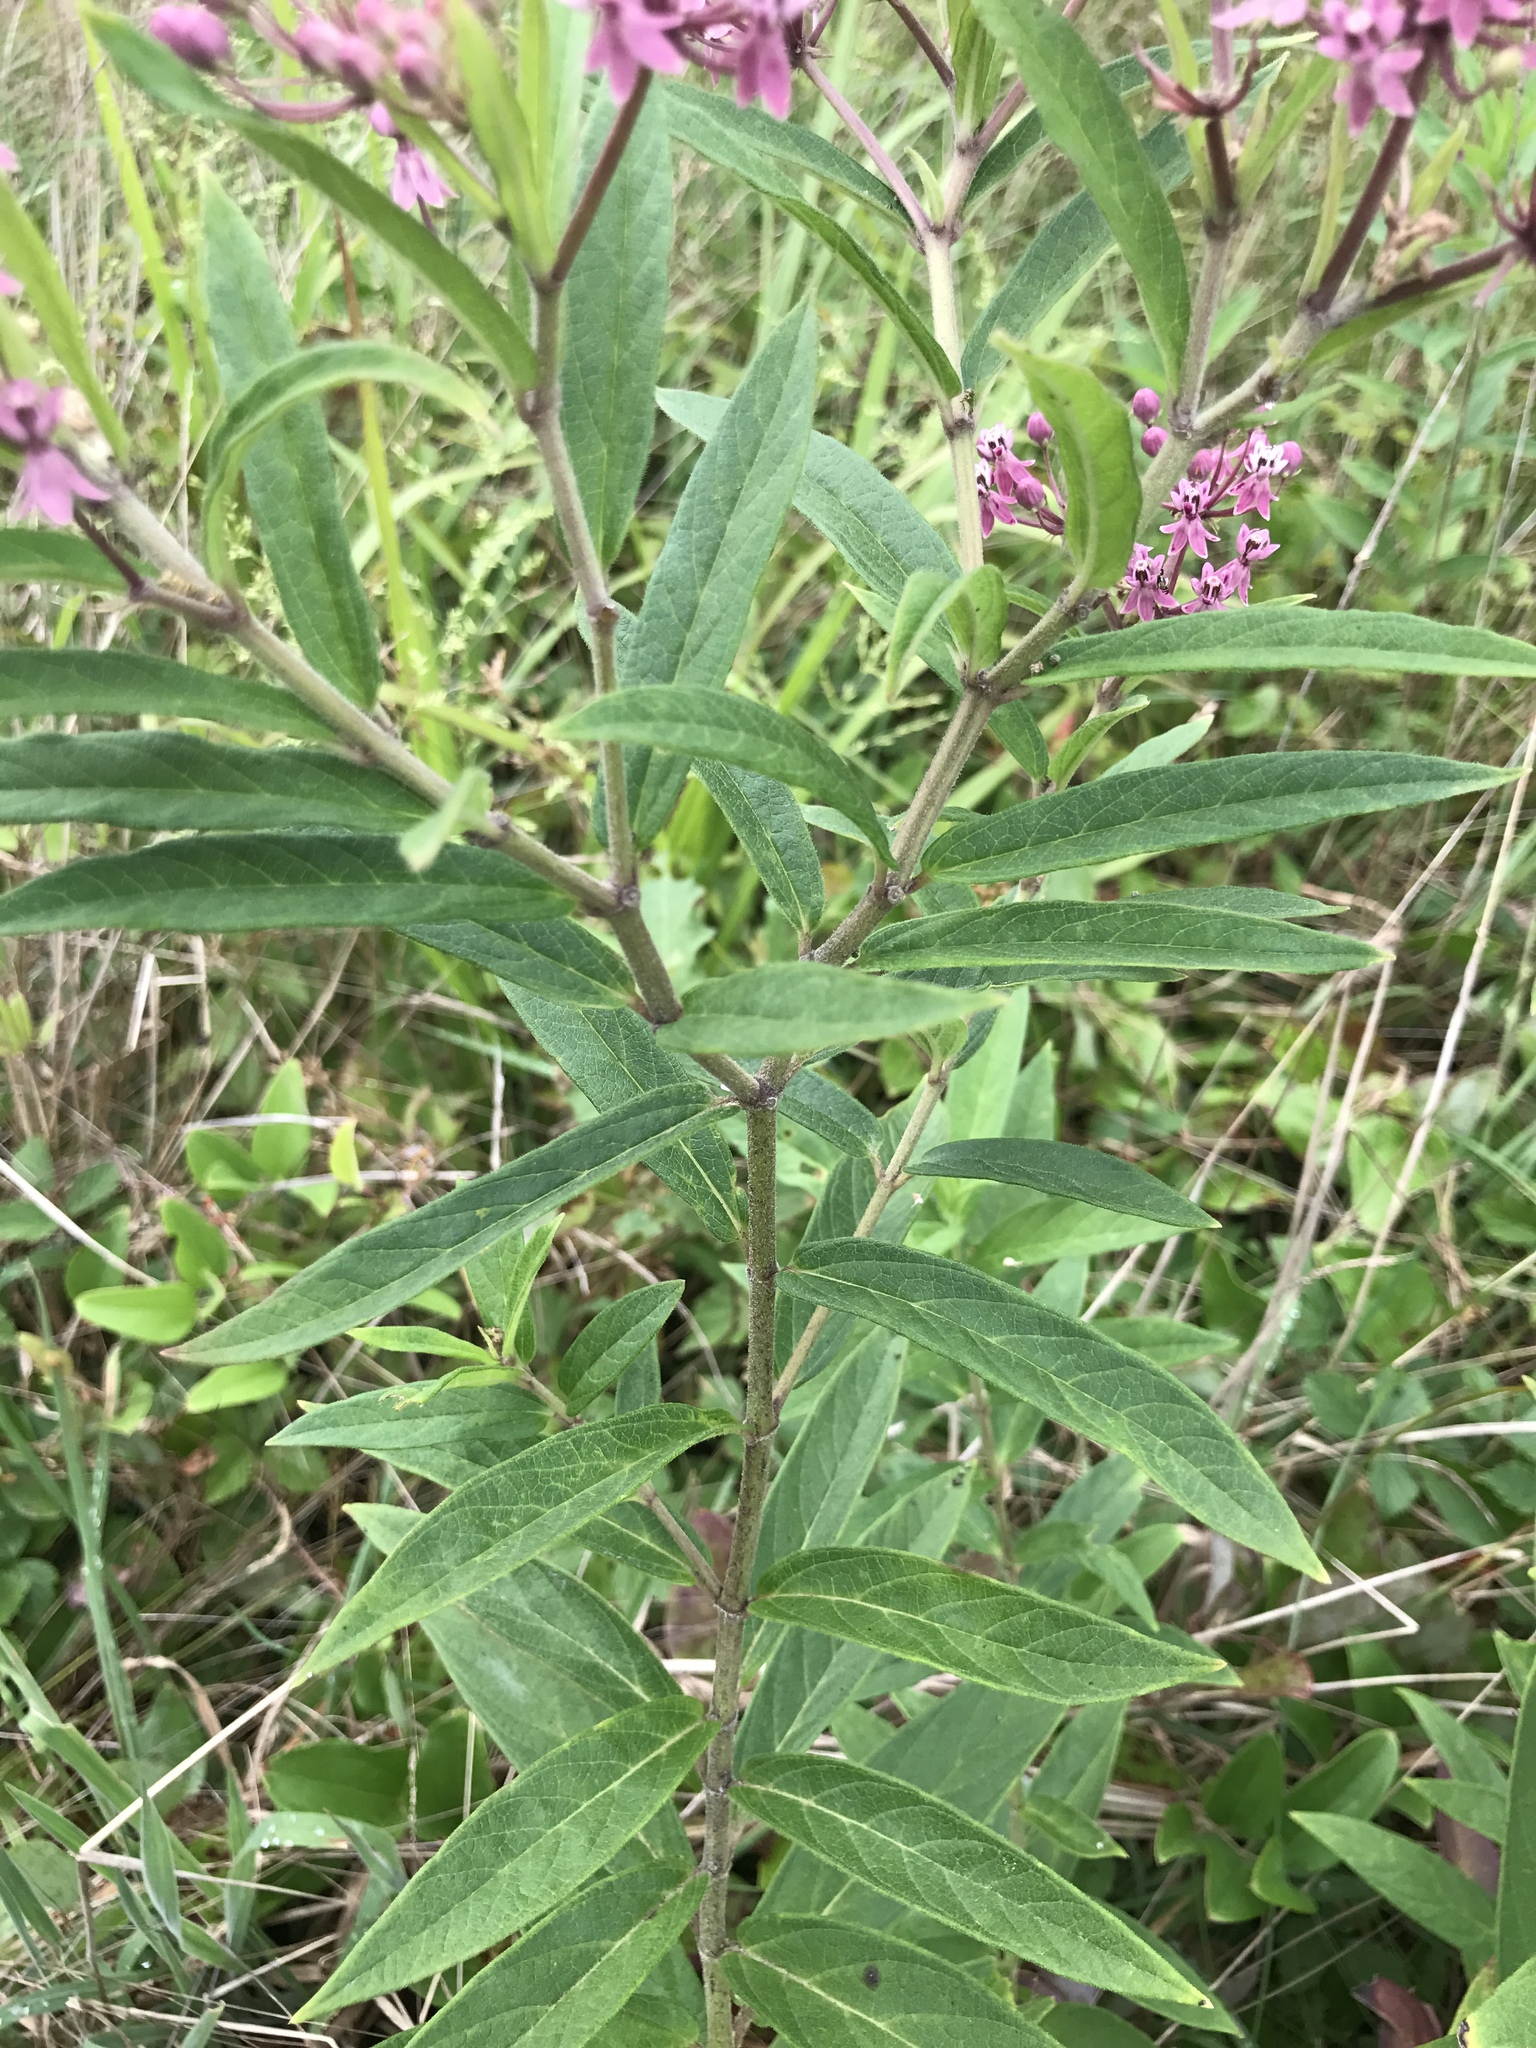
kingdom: Plantae
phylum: Tracheophyta
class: Magnoliopsida
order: Gentianales
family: Apocynaceae
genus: Asclepias
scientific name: Asclepias incarnata
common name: Swamp milkweed
